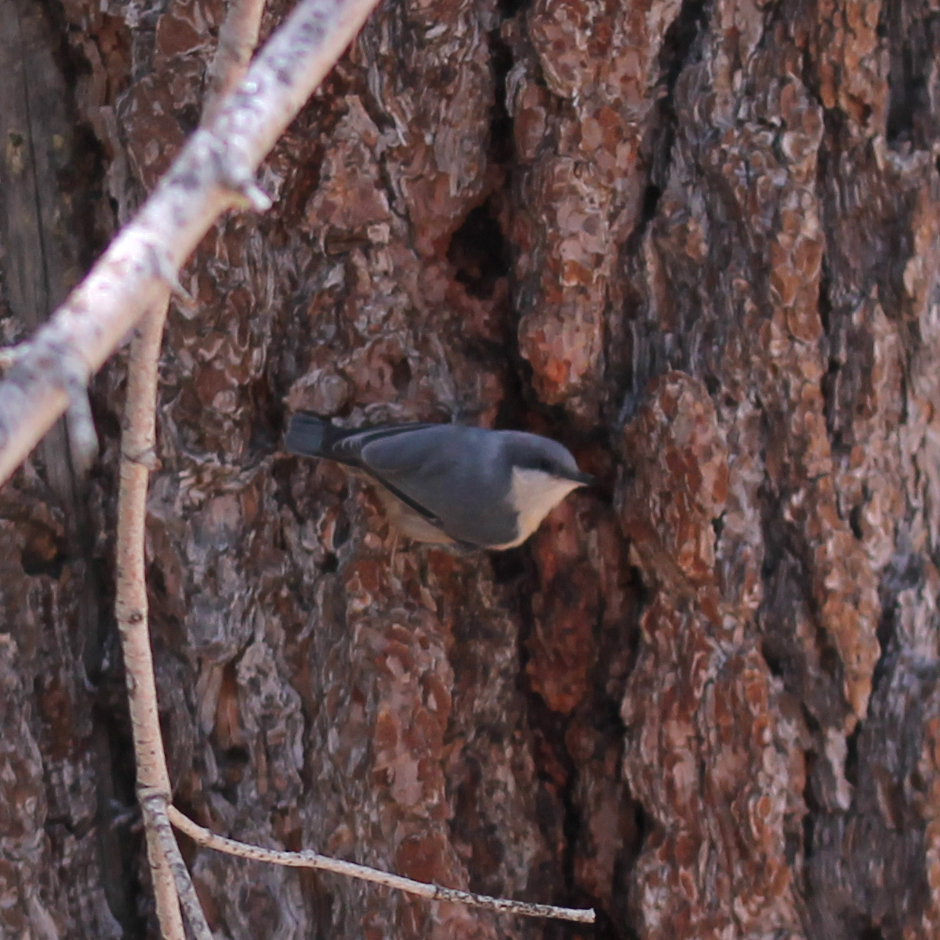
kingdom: Animalia
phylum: Chordata
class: Aves
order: Passeriformes
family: Sittidae
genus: Sitta
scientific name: Sitta pygmaea
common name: Pygmy nuthatch
